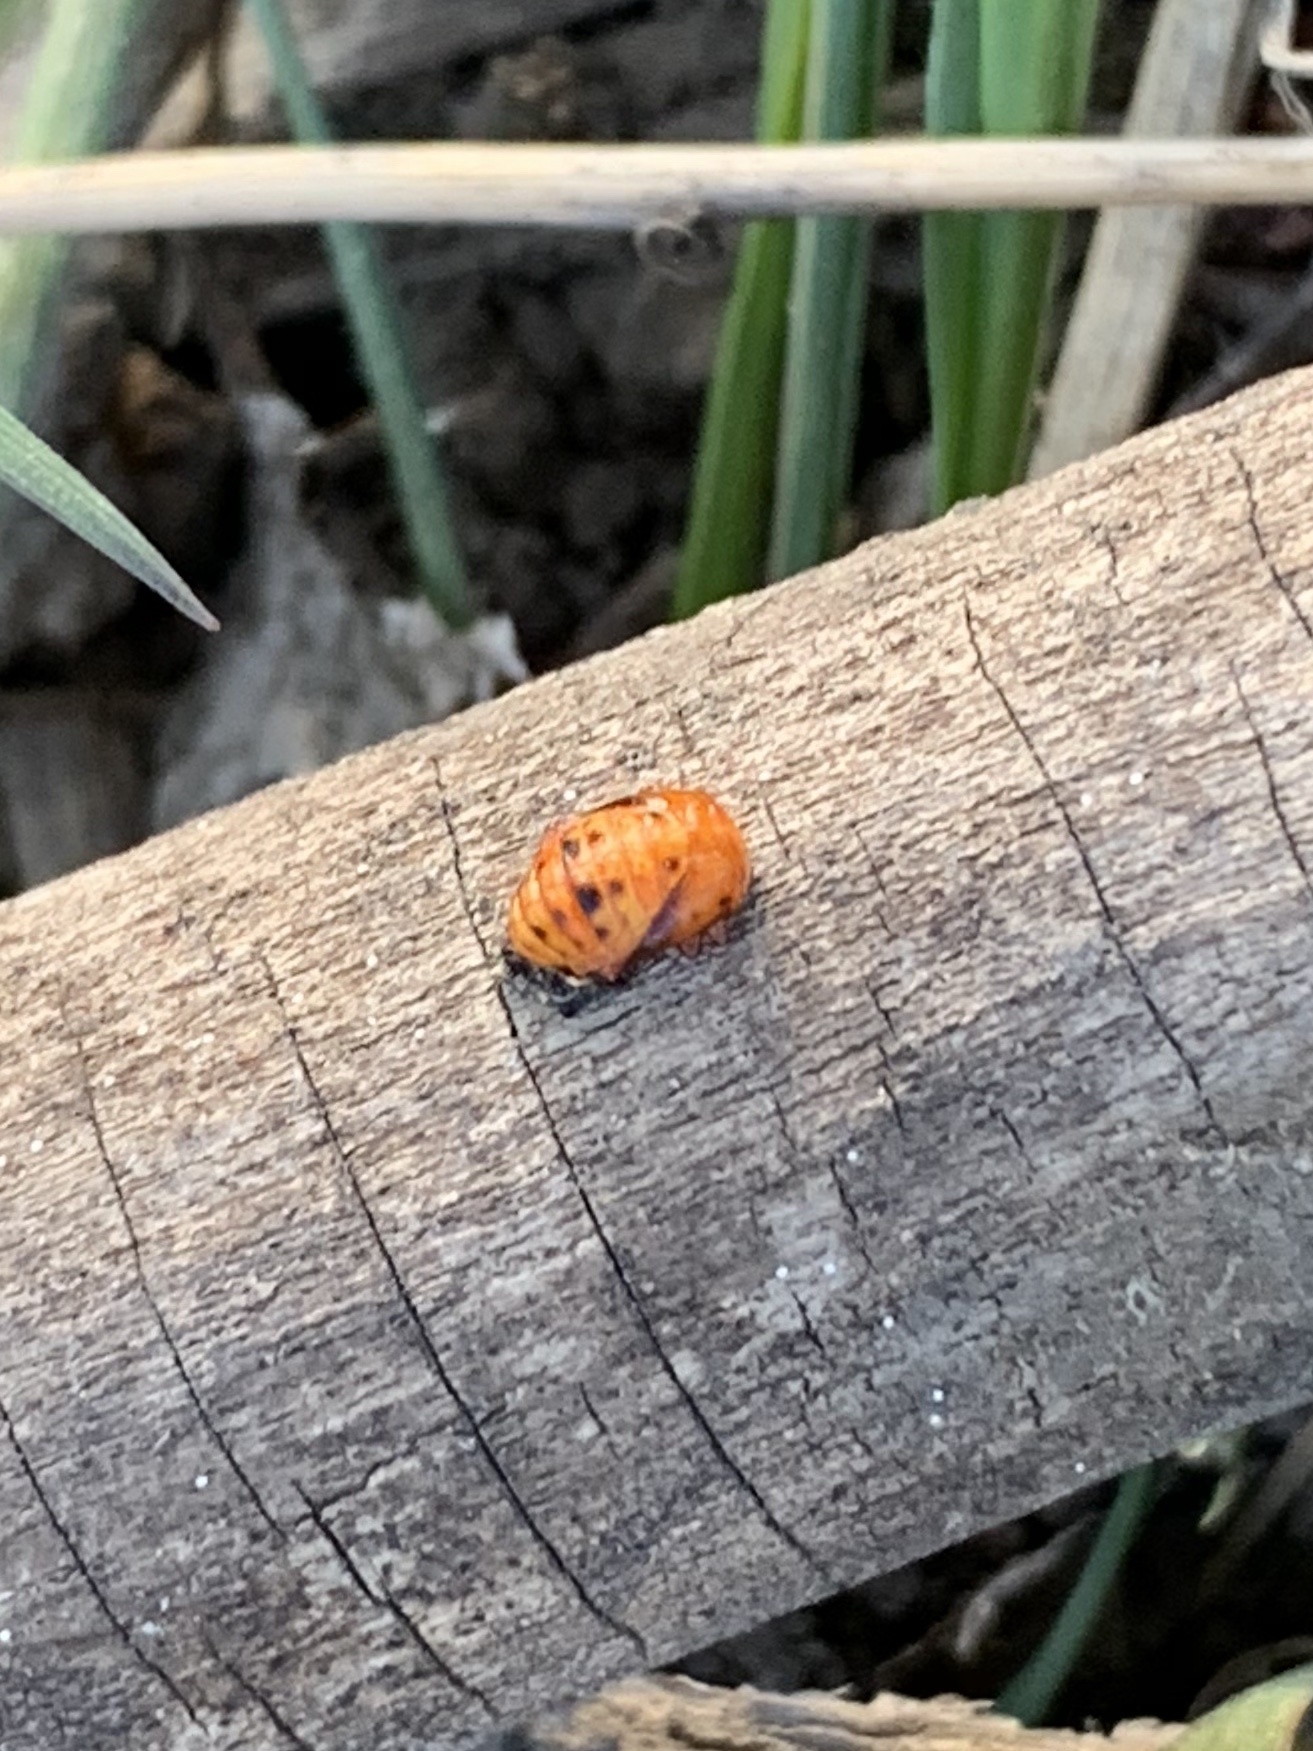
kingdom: Animalia
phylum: Arthropoda
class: Insecta
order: Coleoptera
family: Coccinellidae
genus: Hippodamia
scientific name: Hippodamia convergens
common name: Convergent lady beetle
